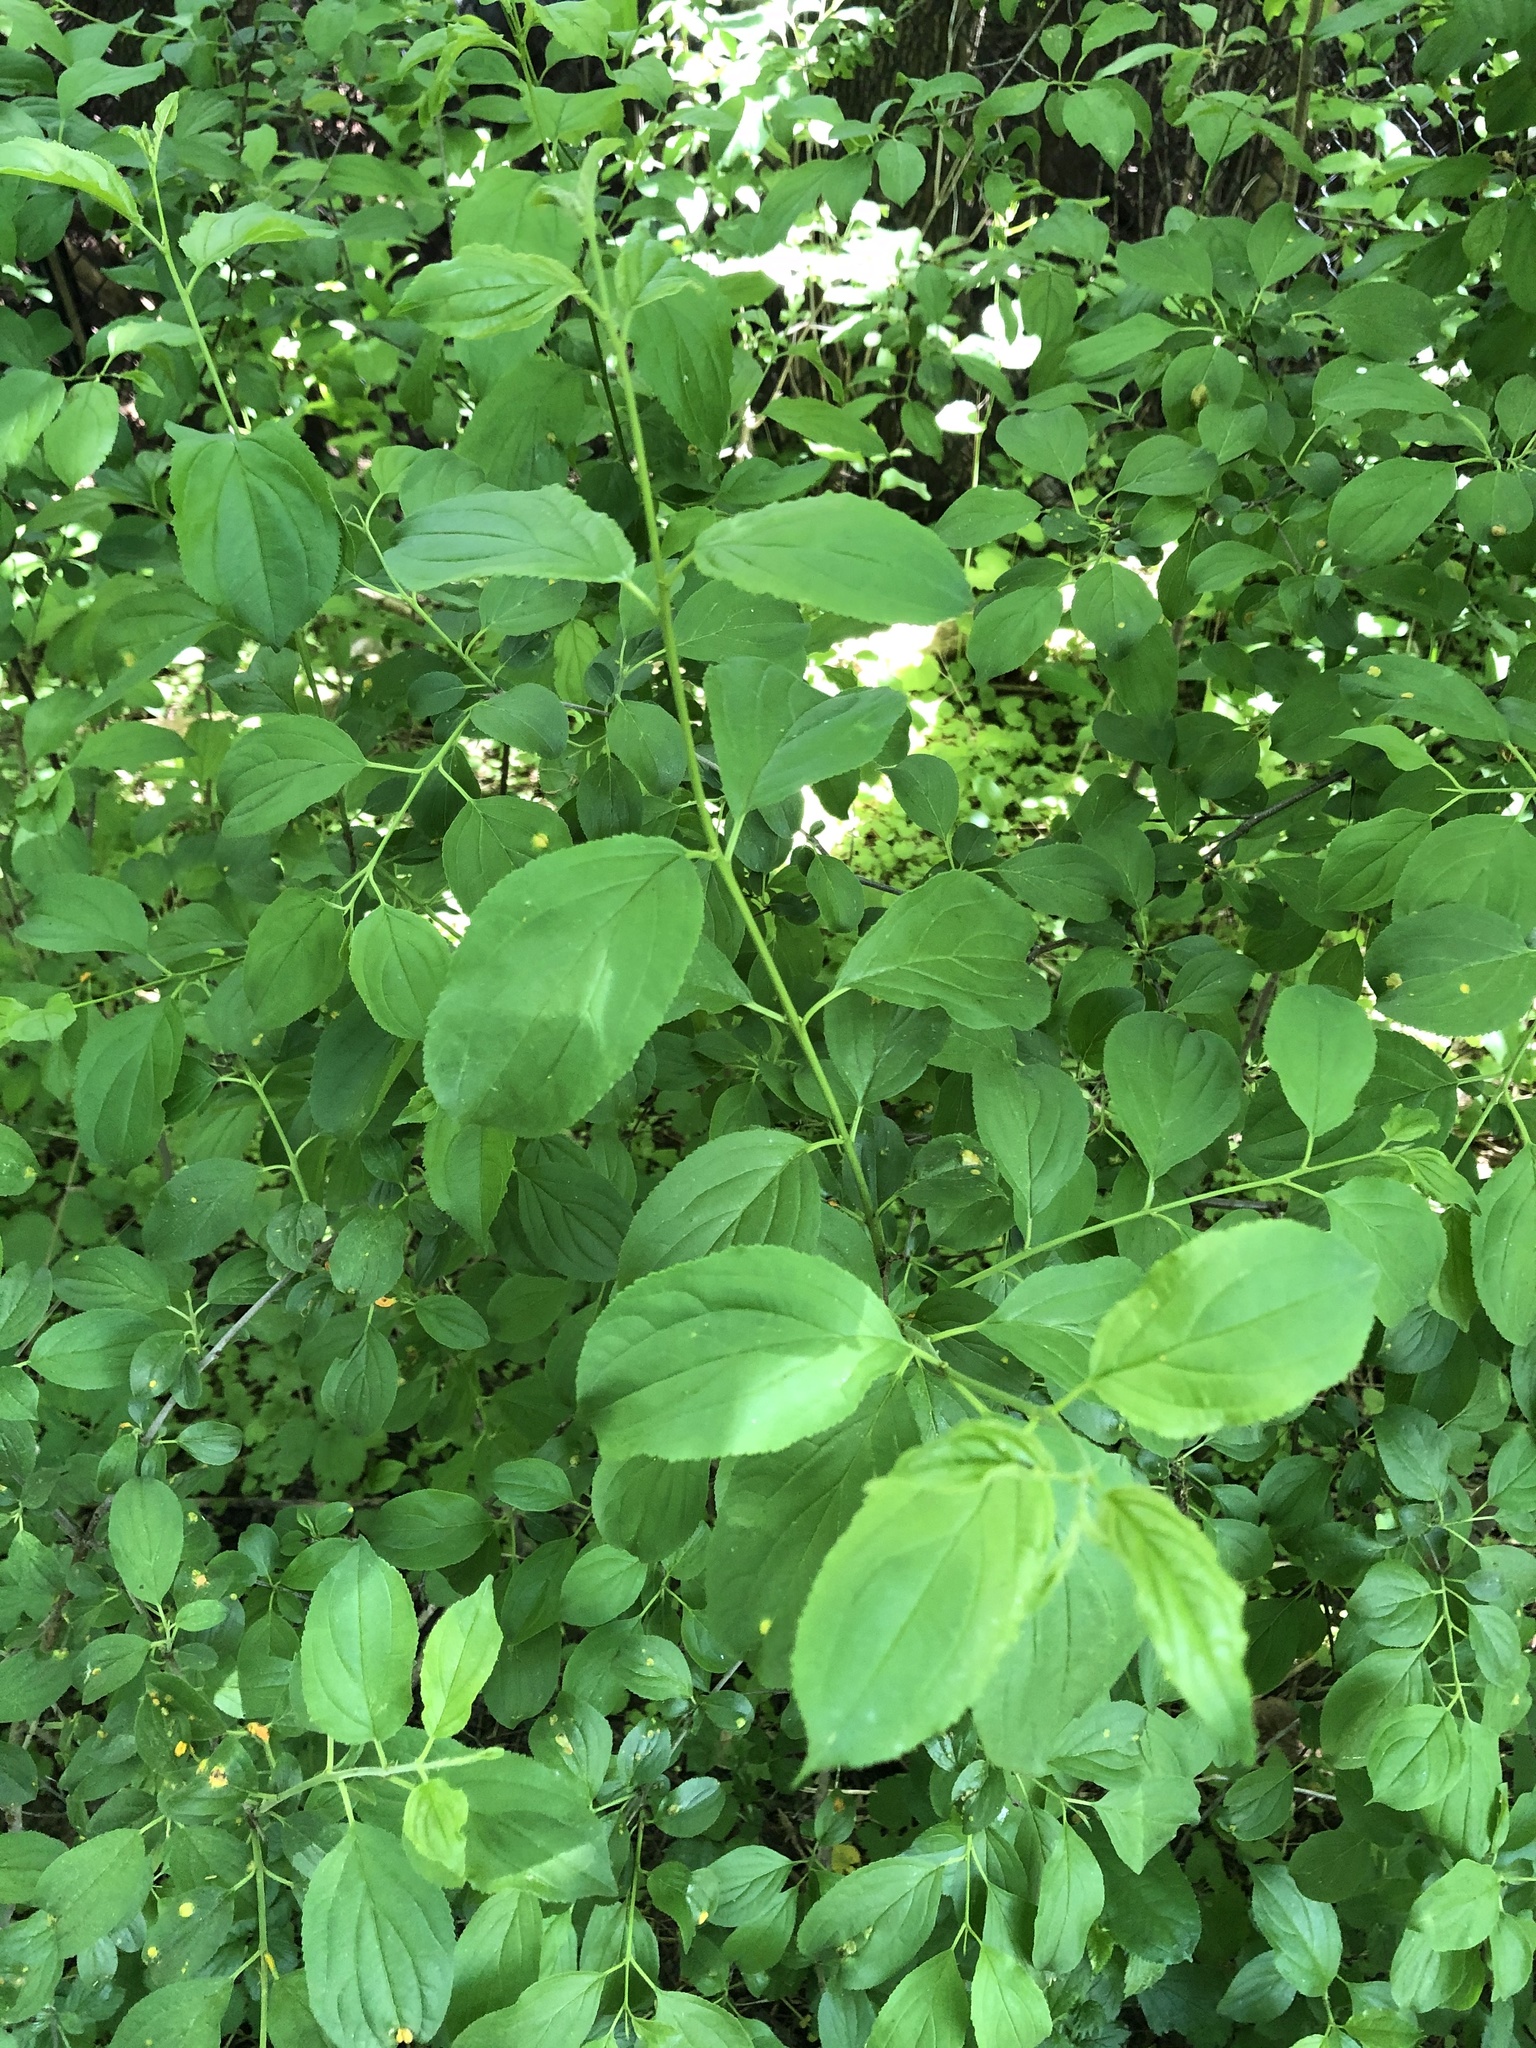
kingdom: Plantae
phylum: Tracheophyta
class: Magnoliopsida
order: Rosales
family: Rhamnaceae
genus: Rhamnus
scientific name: Rhamnus cathartica
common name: Common buckthorn
